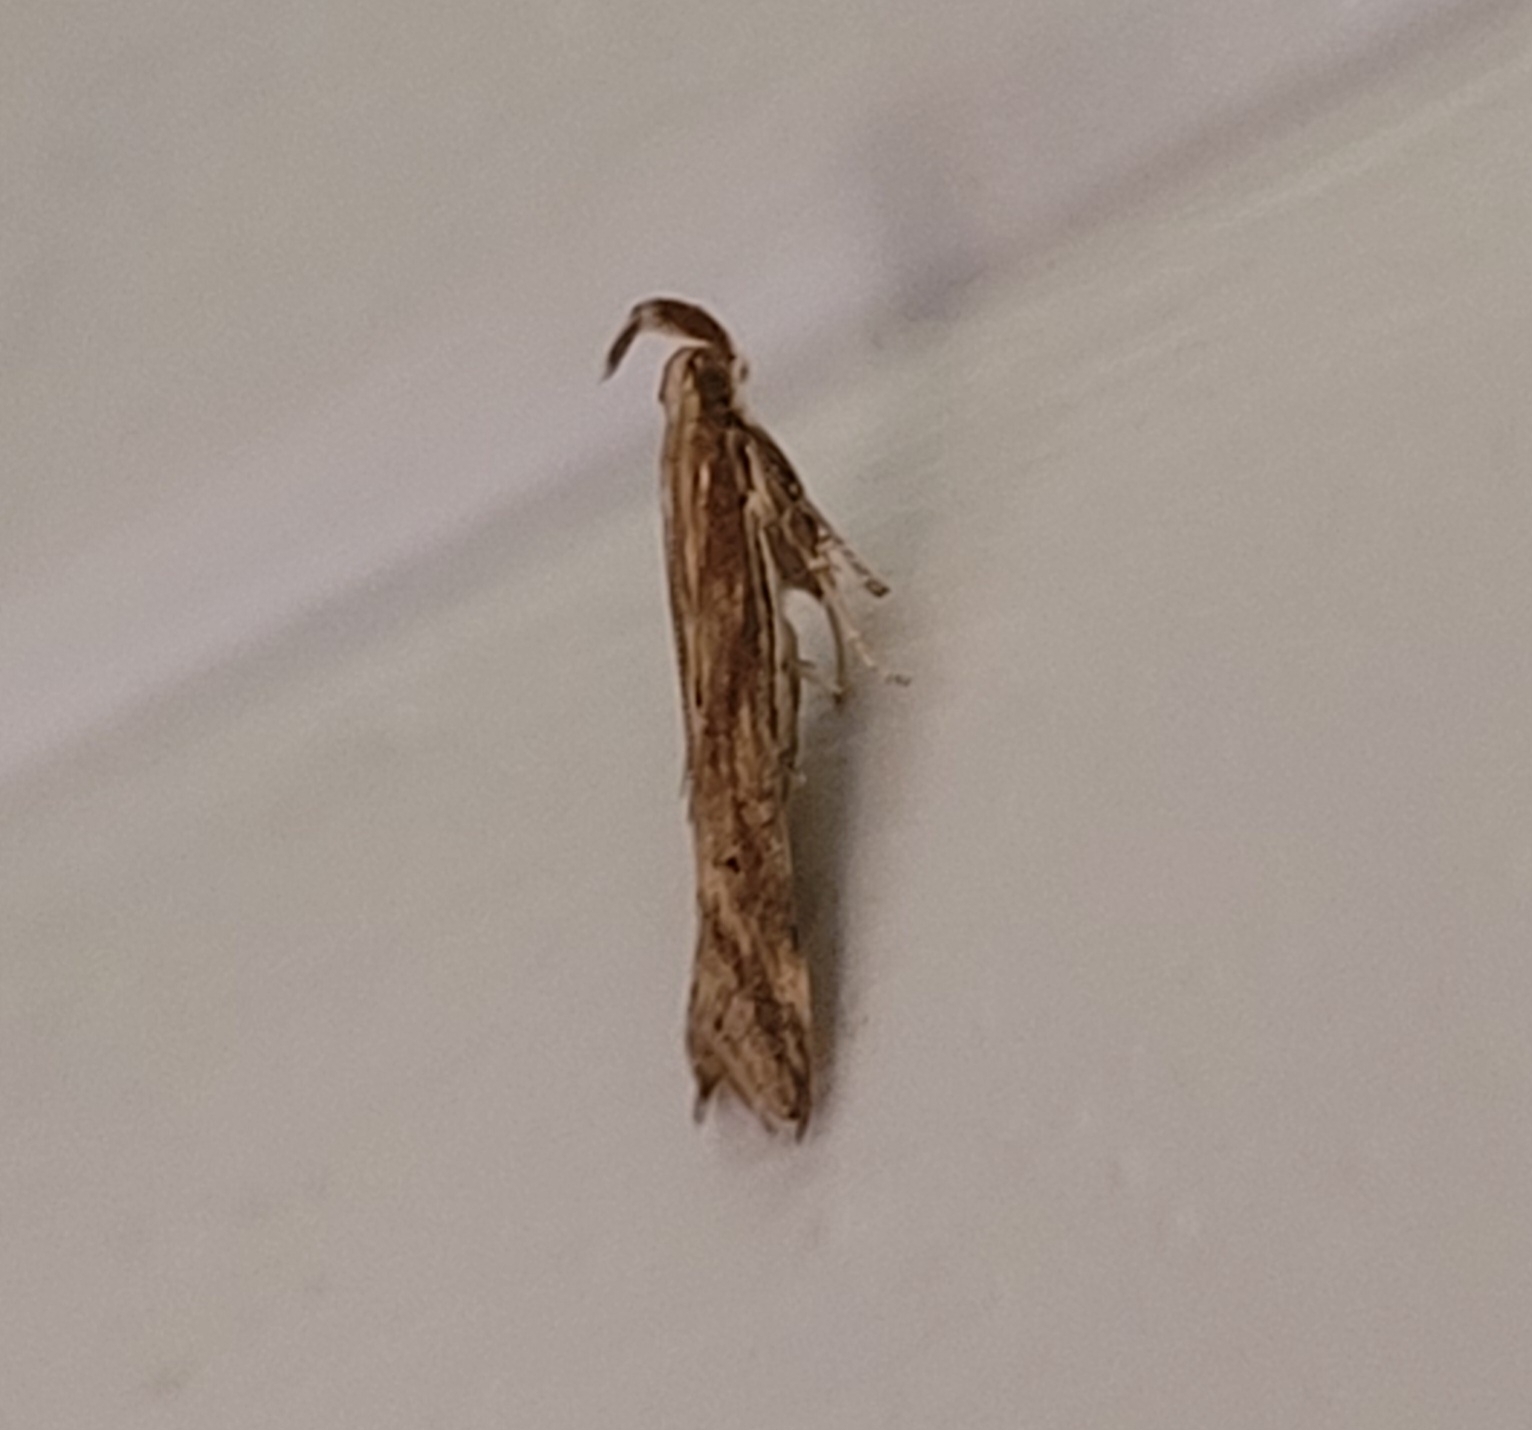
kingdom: Animalia
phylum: Arthropoda
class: Insecta
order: Lepidoptera
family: Gelechiidae
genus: Metzneria
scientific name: Metzneria lappella
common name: Burdock neb
